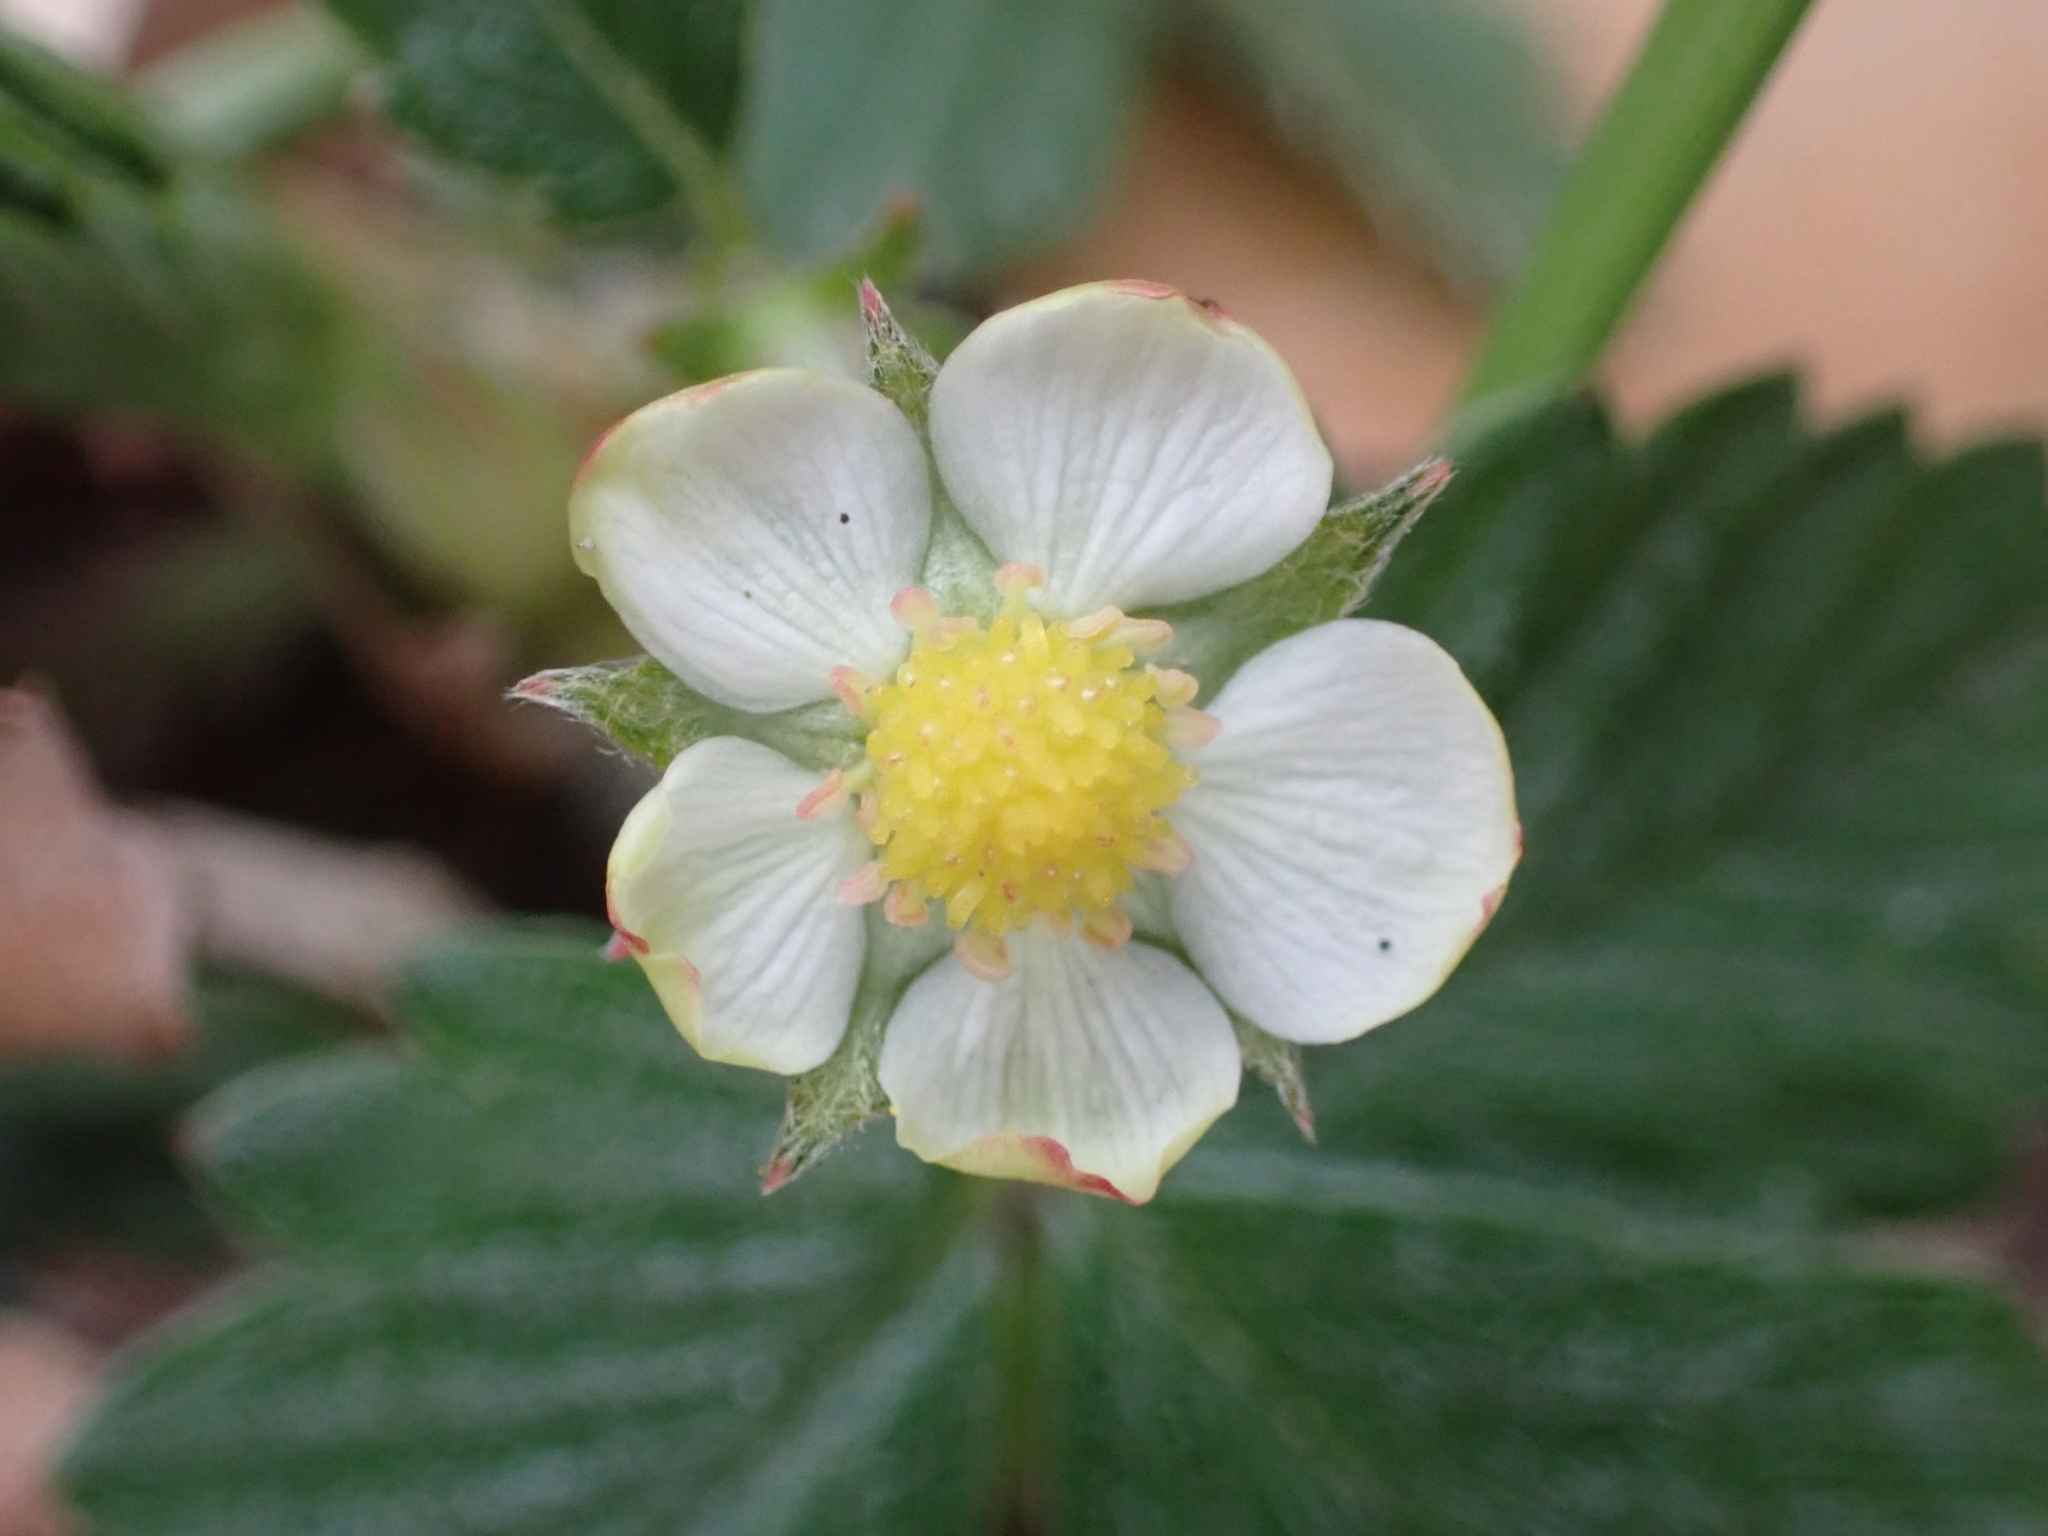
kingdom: Plantae
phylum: Tracheophyta
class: Magnoliopsida
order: Rosales
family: Rosaceae
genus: Fragaria
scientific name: Fragaria vesca
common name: Wild strawberry
